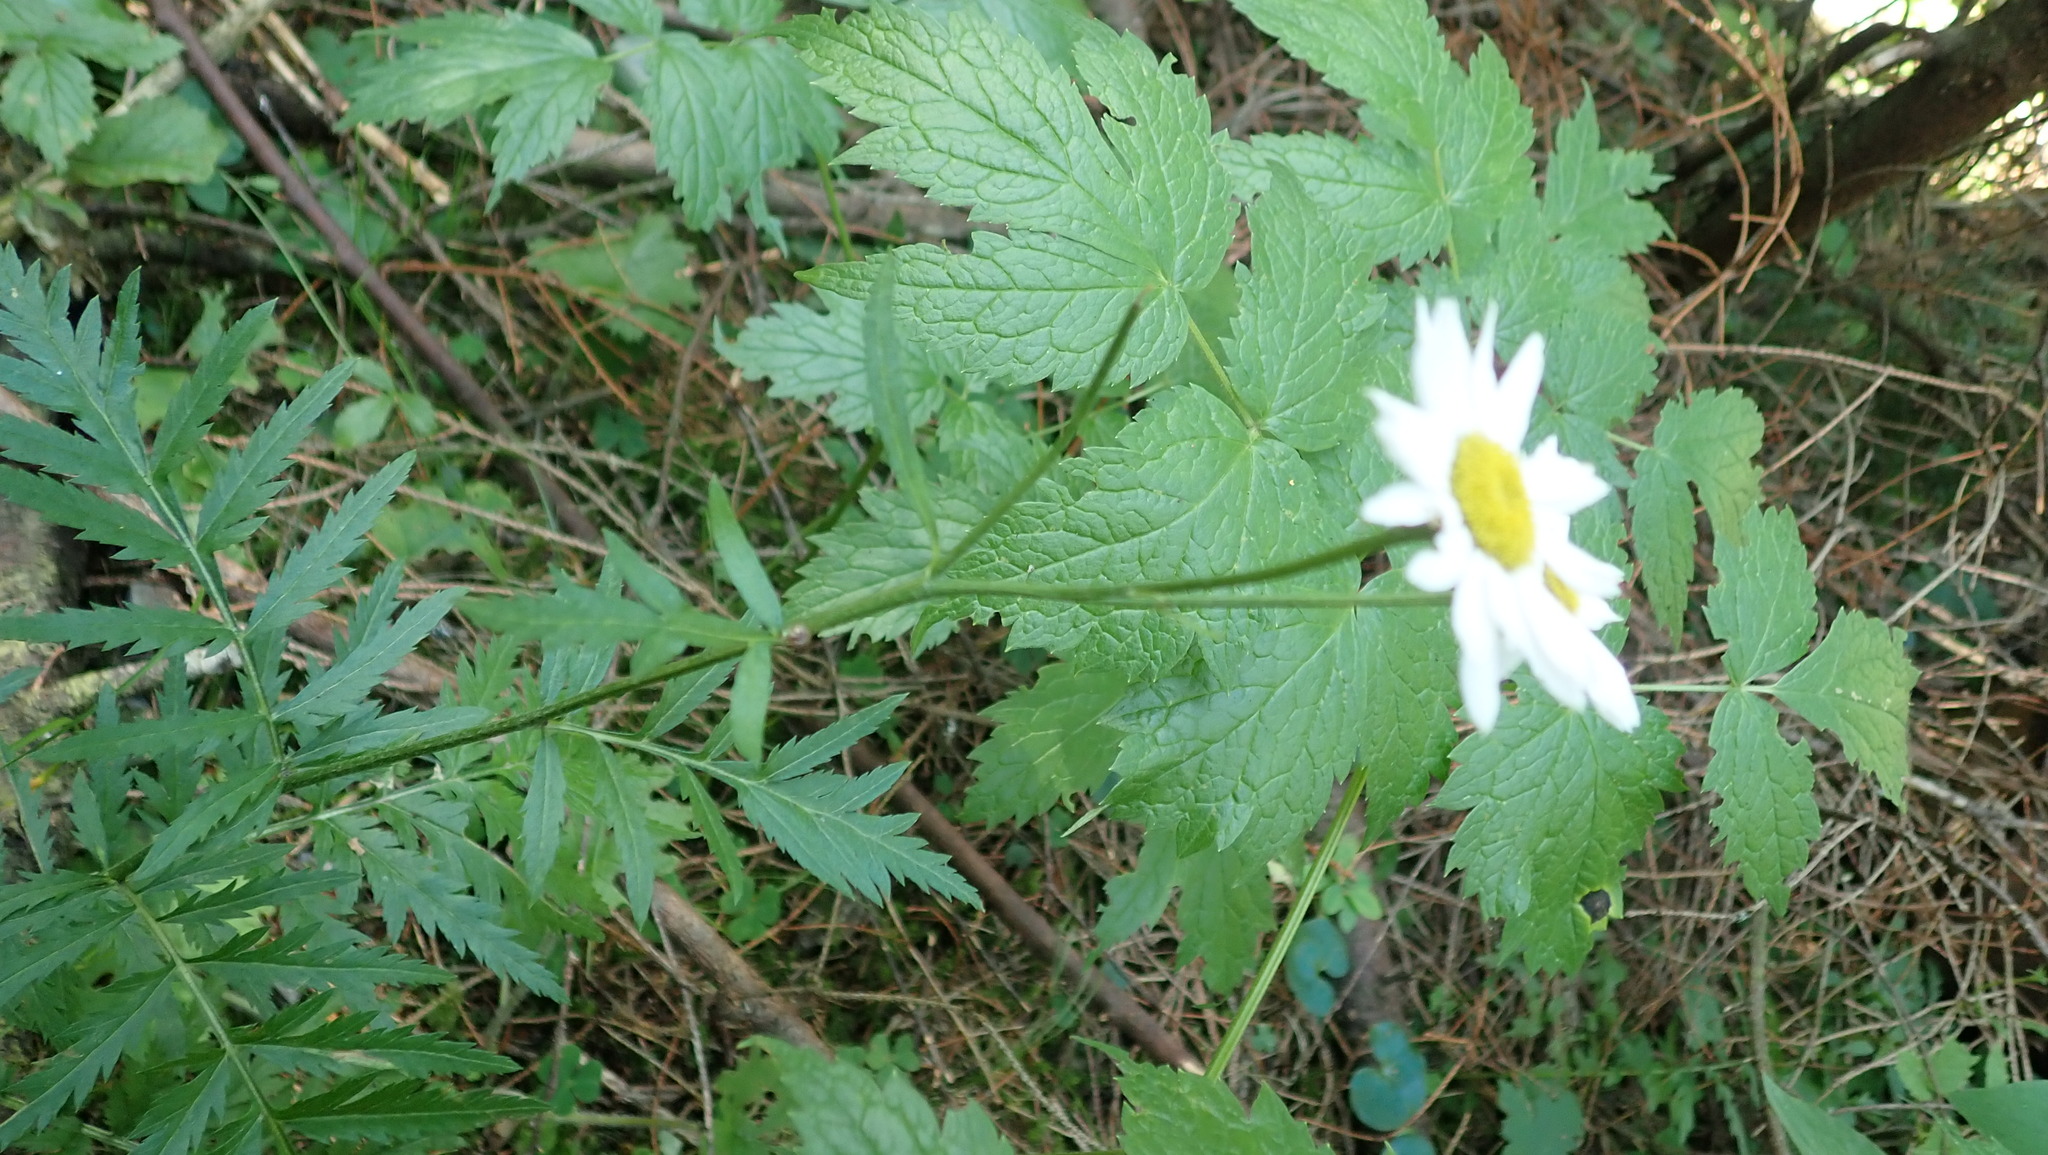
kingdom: Plantae
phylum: Tracheophyta
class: Magnoliopsida
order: Asterales
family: Asteraceae
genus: Tanacetum
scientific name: Tanacetum corymbosum
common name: Scentless feverfew
